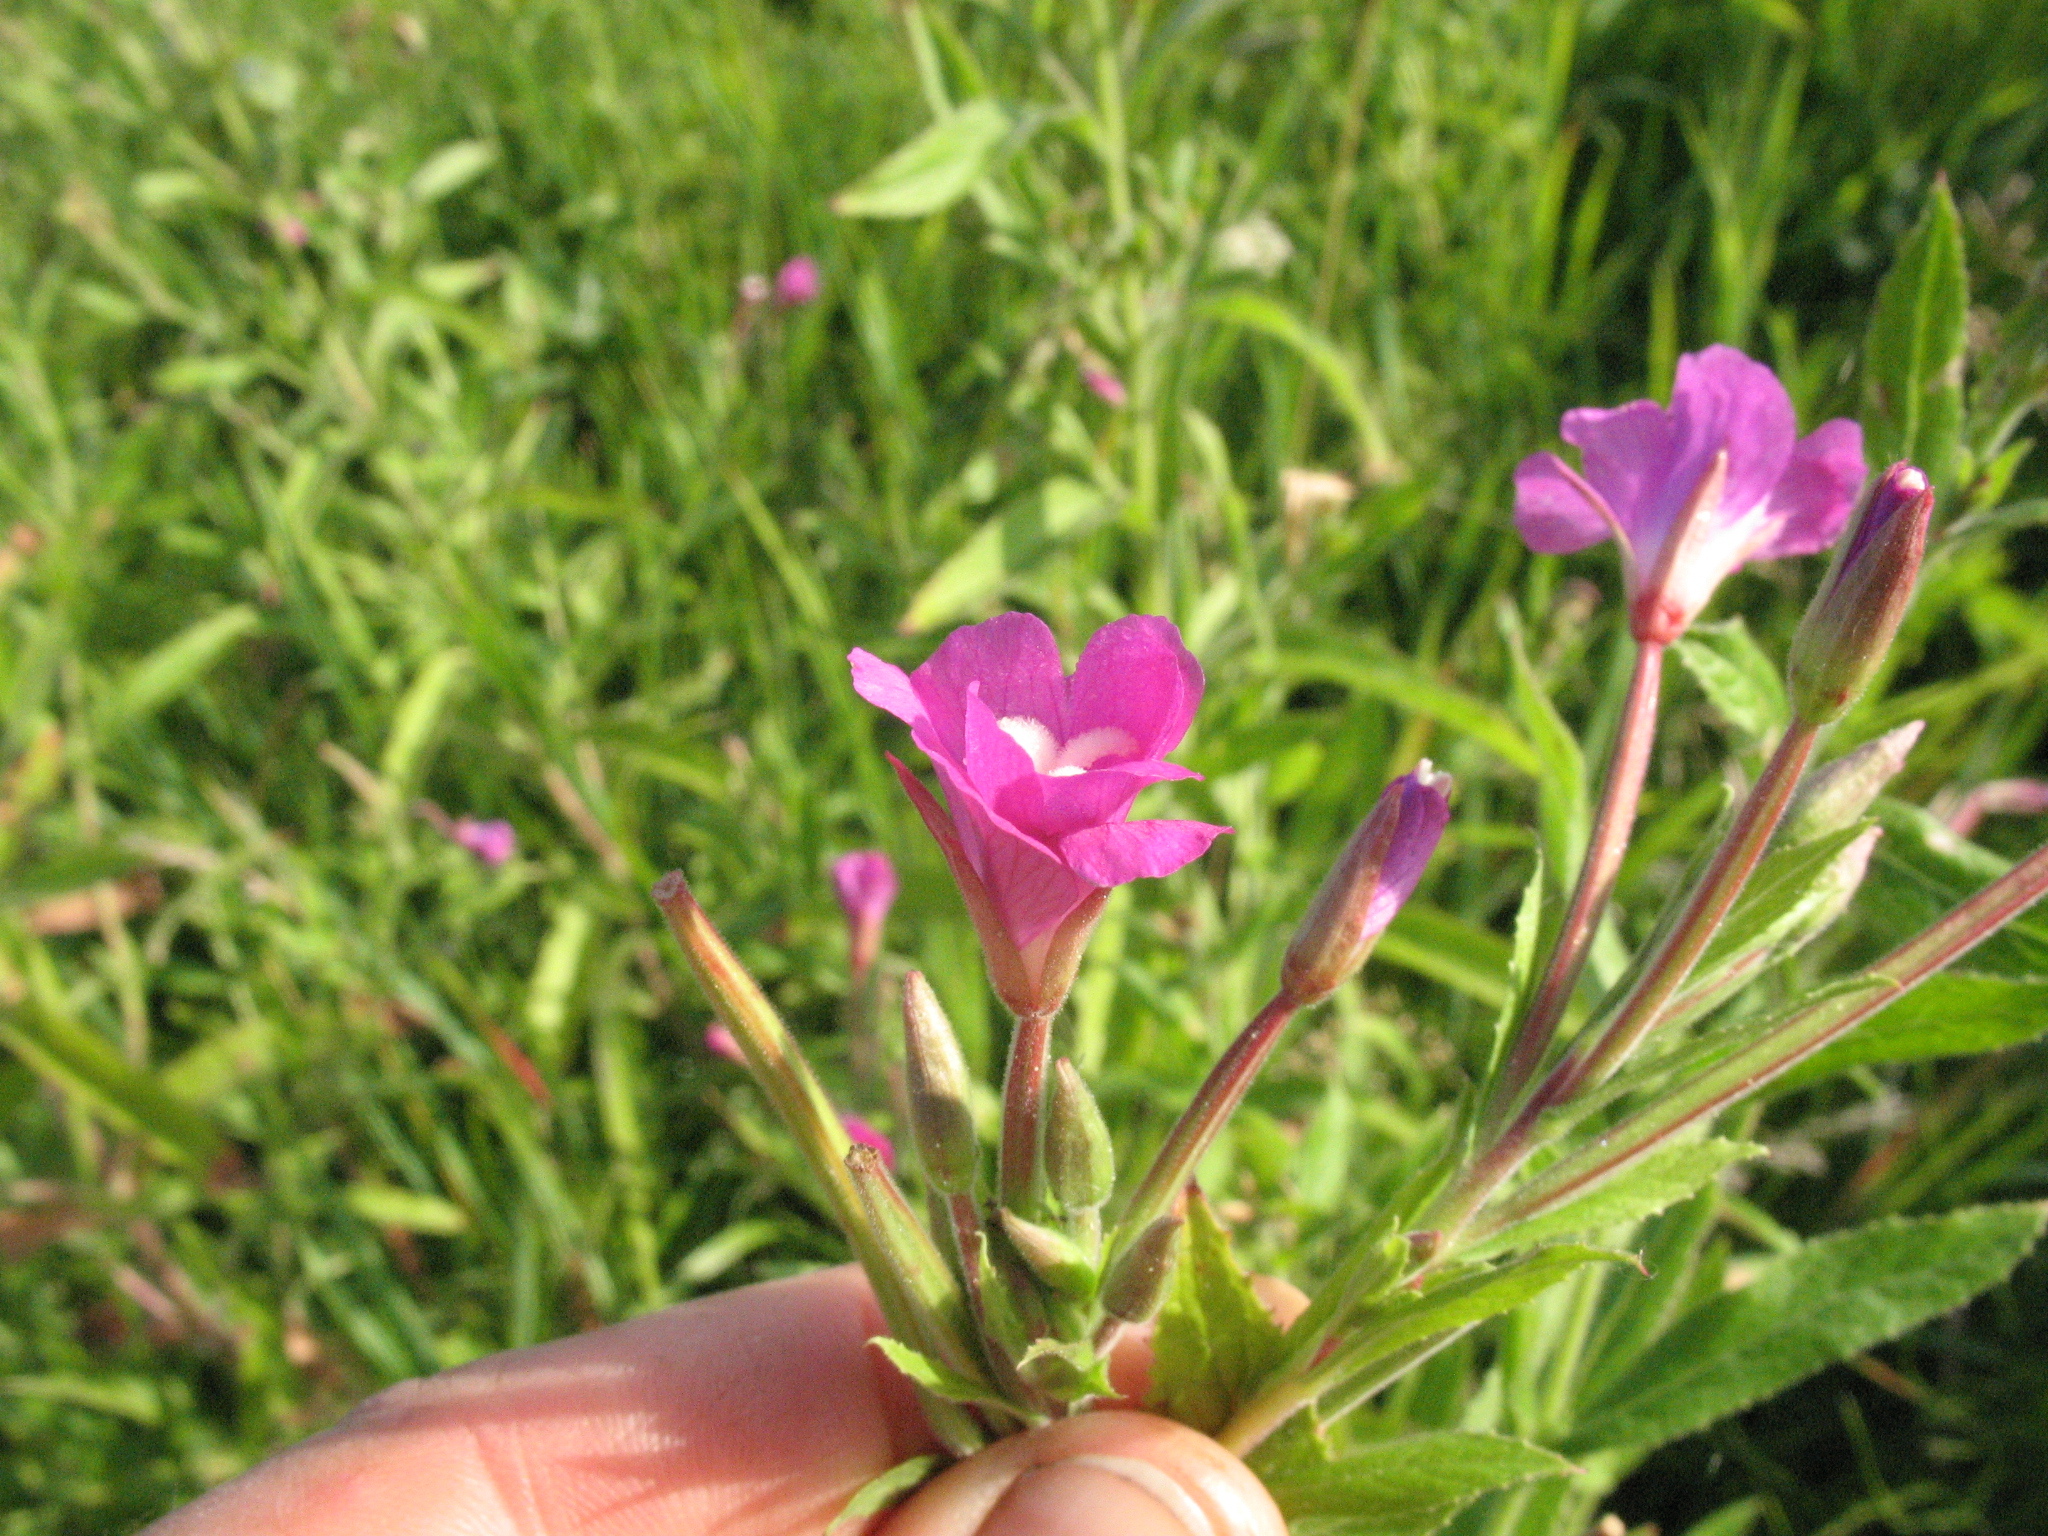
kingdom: Plantae
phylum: Tracheophyta
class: Magnoliopsida
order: Myrtales
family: Onagraceae
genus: Epilobium
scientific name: Epilobium hirsutum
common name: Great willowherb
